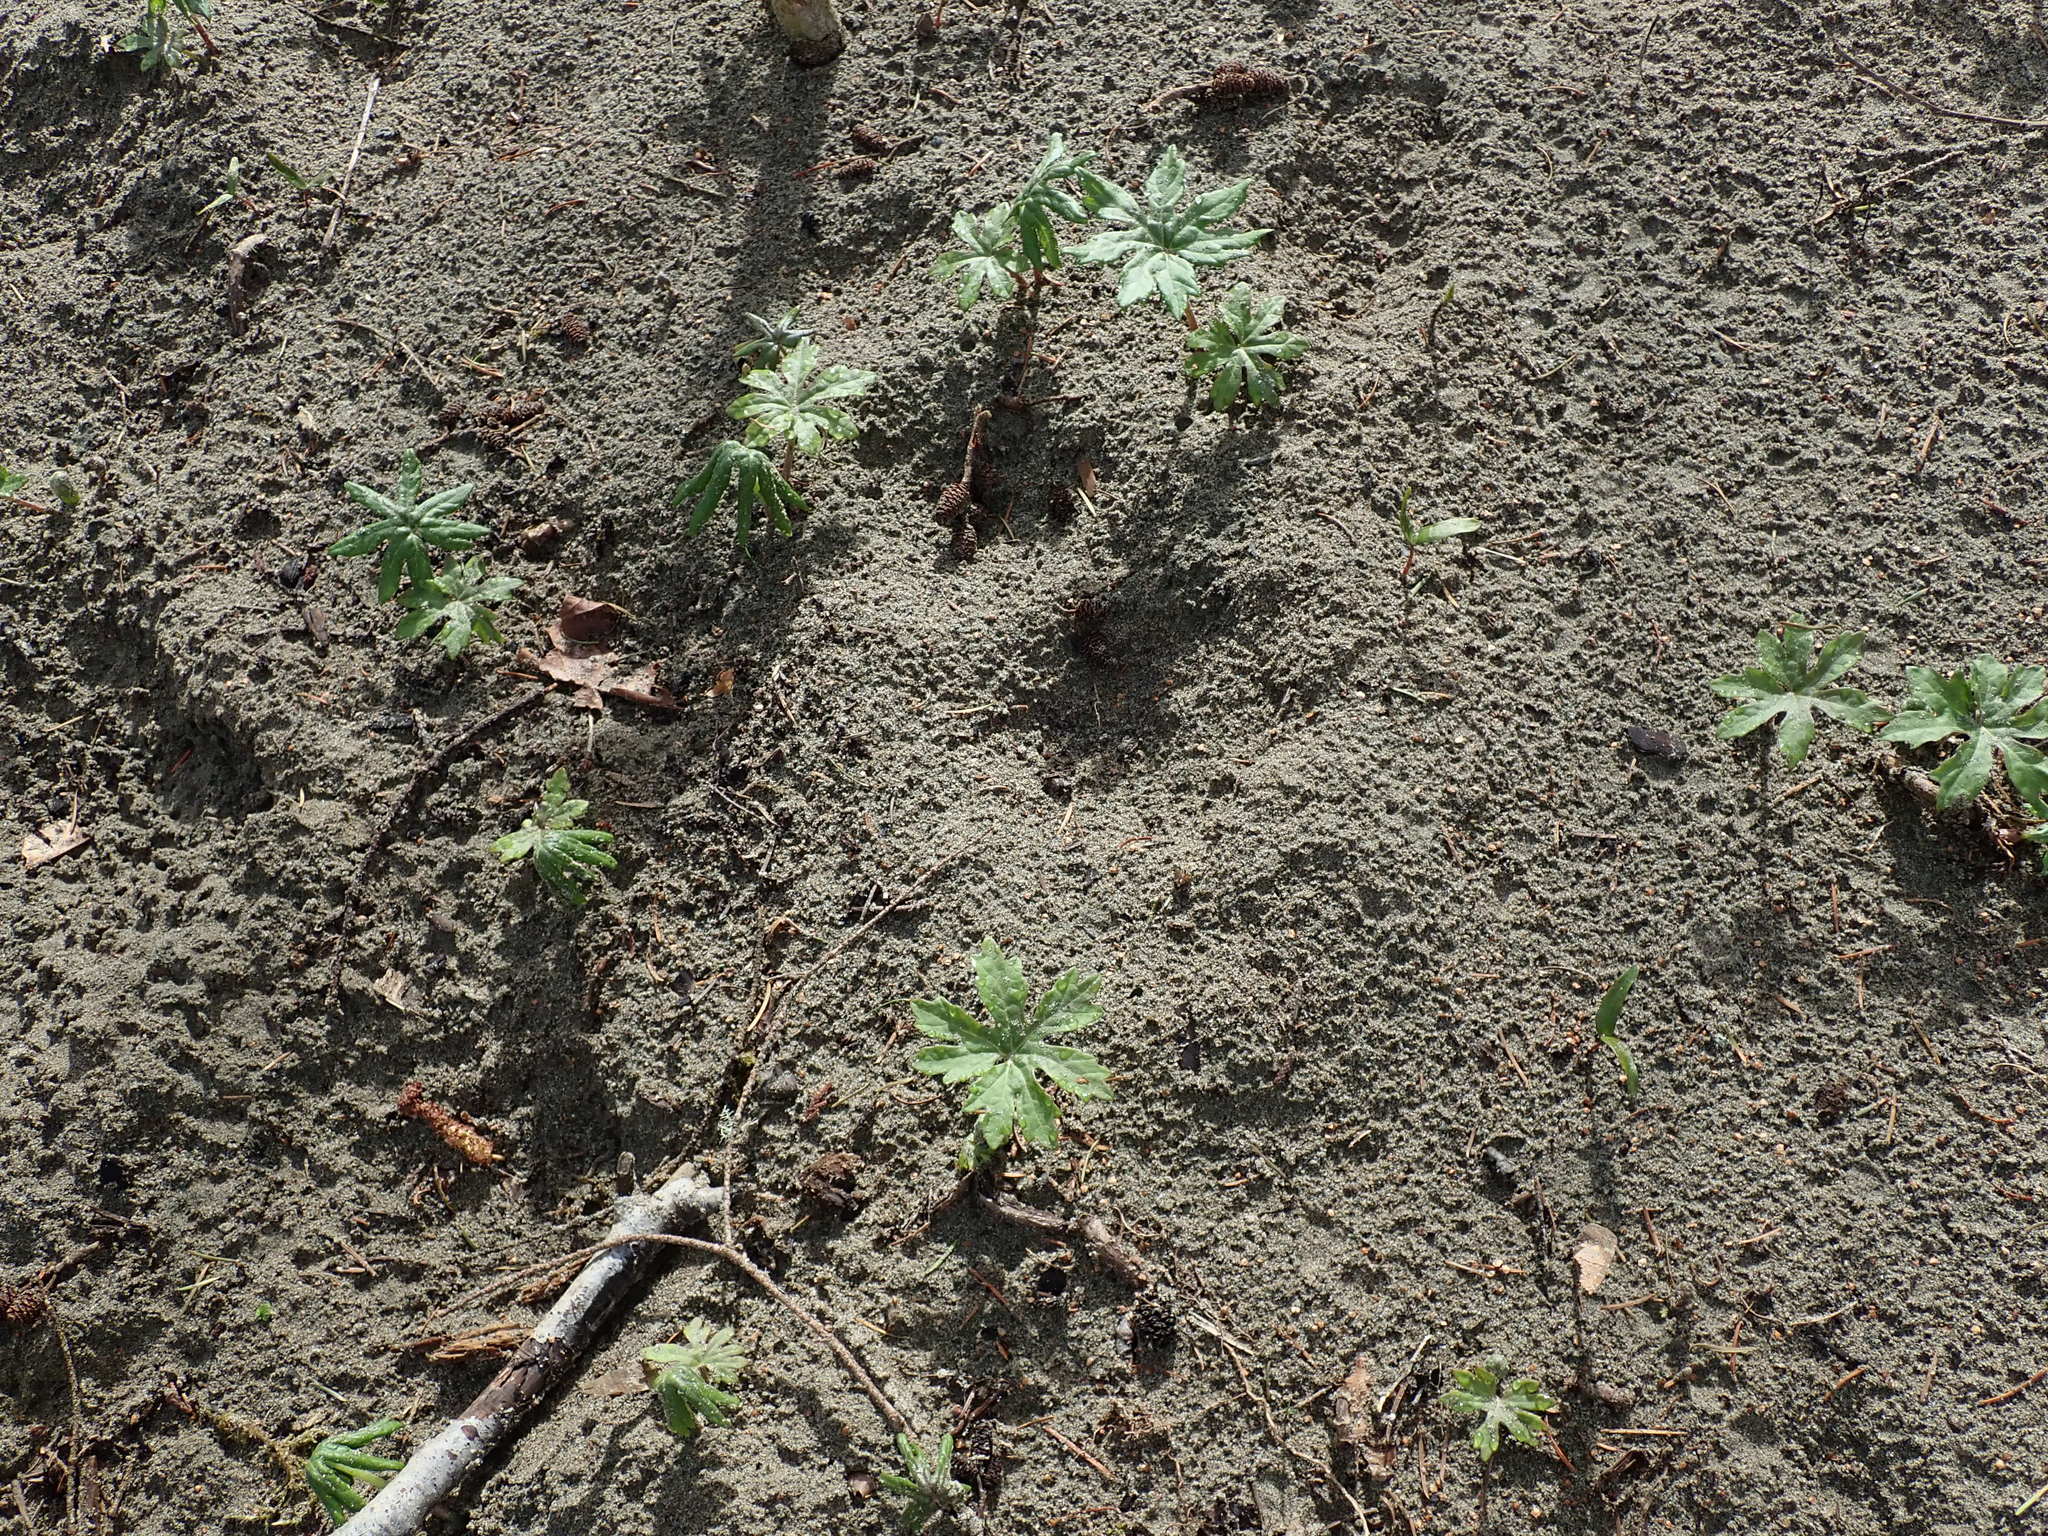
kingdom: Plantae
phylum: Tracheophyta
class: Magnoliopsida
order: Asterales
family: Asteraceae
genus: Petasites
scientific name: Petasites frigidus
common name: Arctic butterbur
